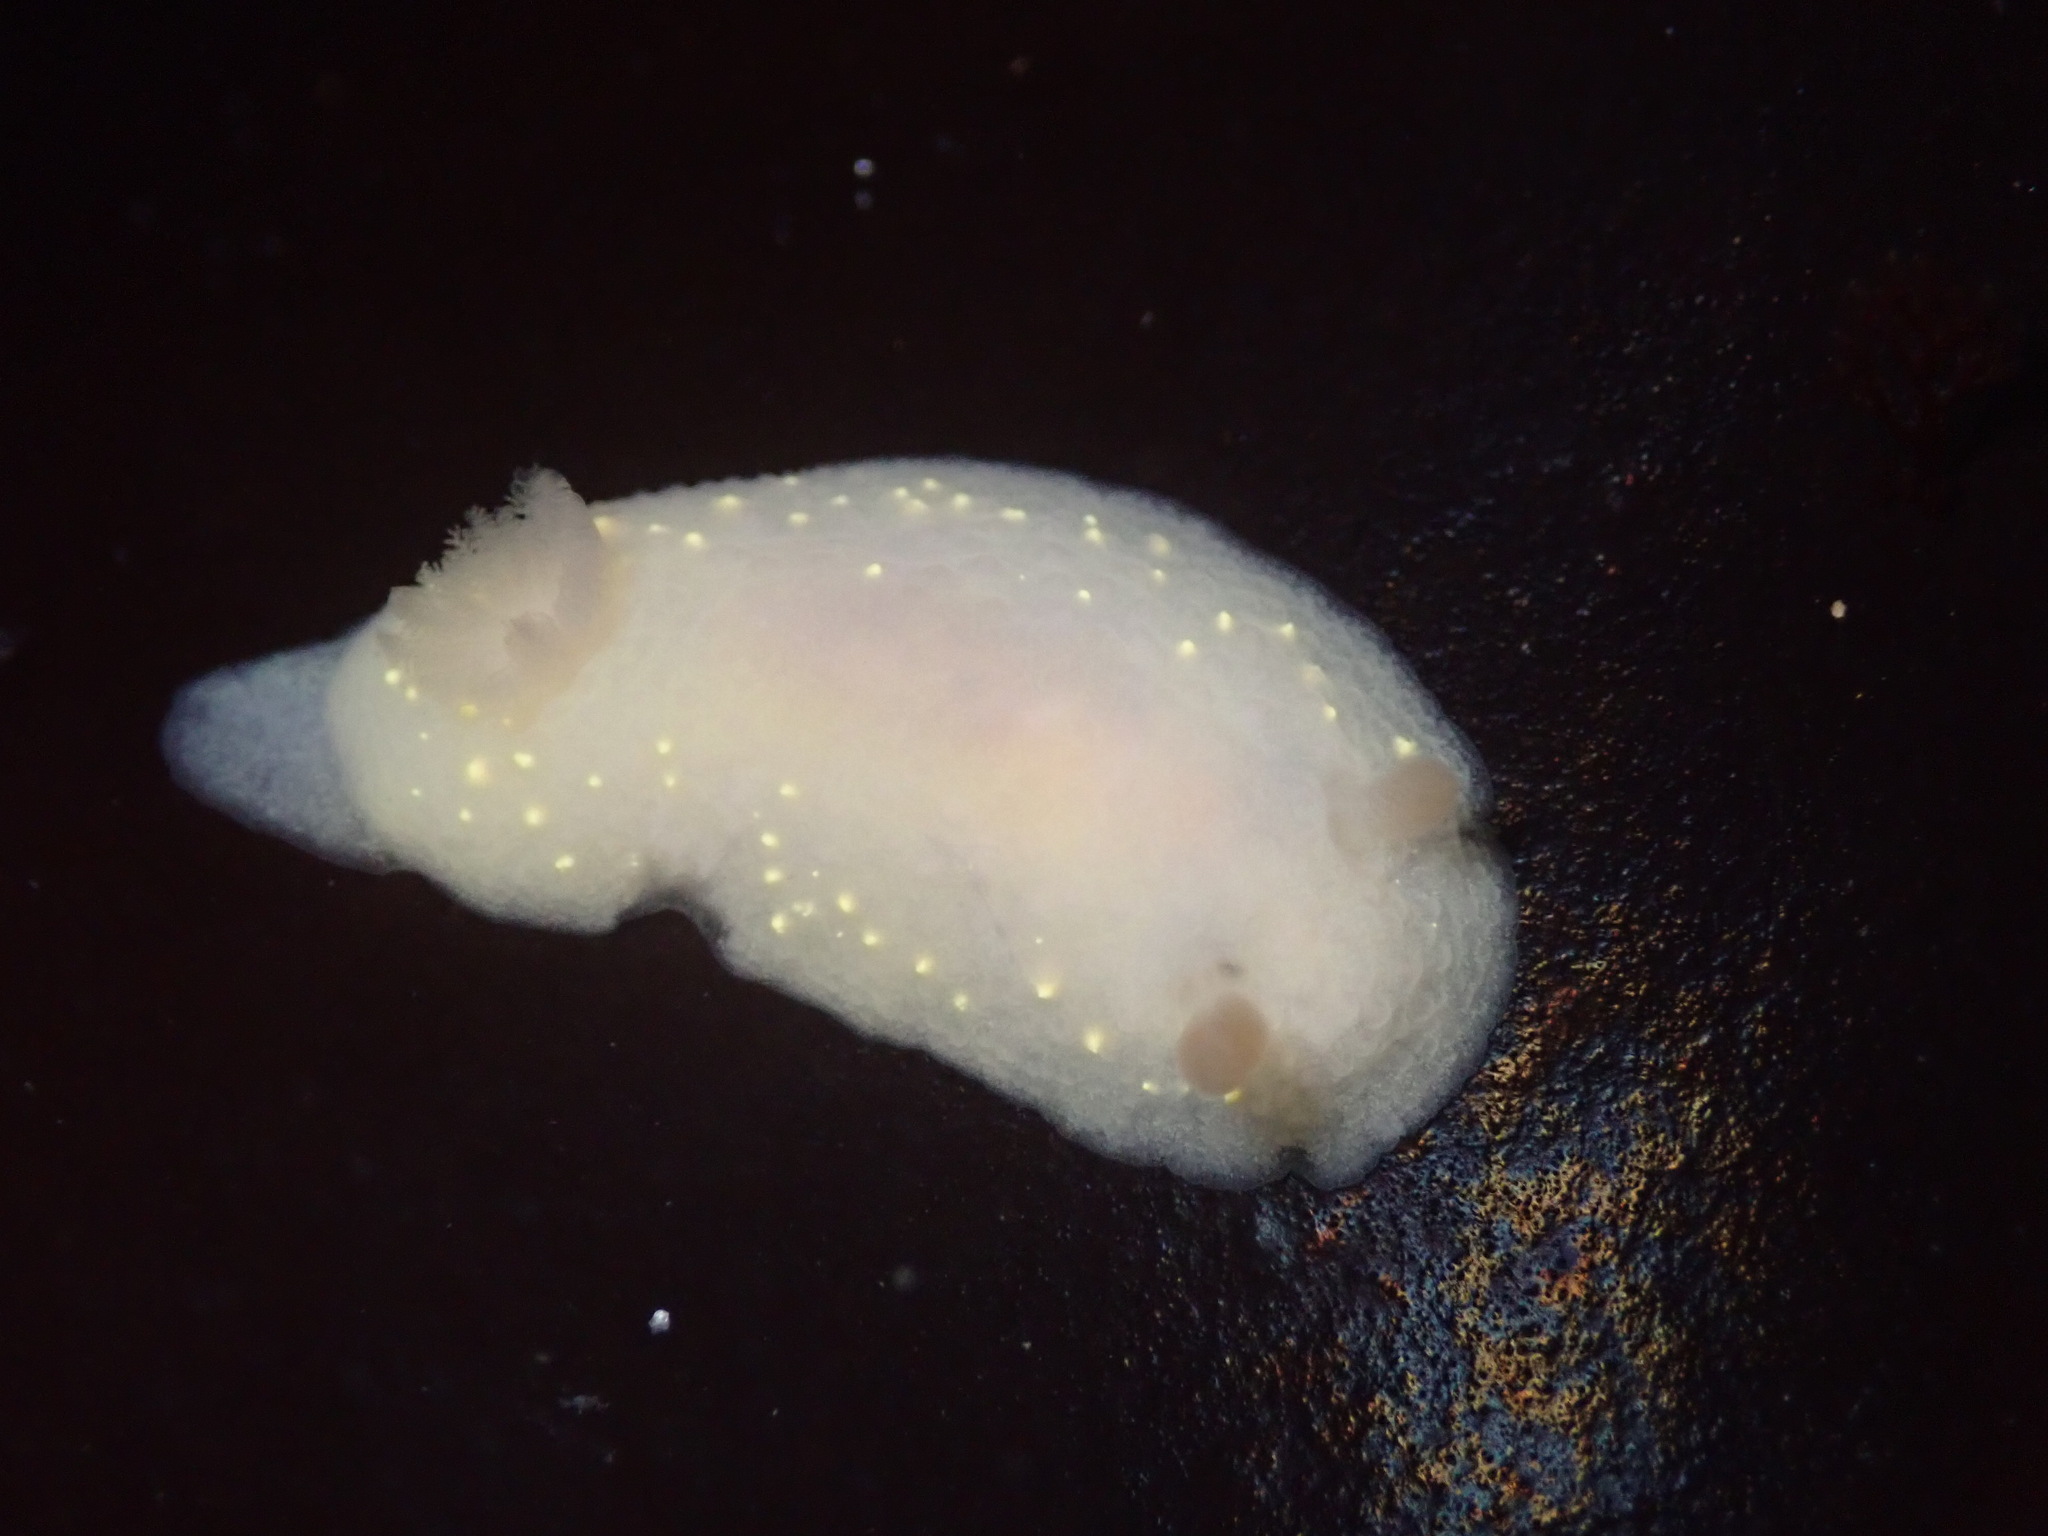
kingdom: Animalia
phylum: Mollusca
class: Gastropoda
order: Nudibranchia
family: Cadlinidae
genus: Cadlina
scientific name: Cadlina modesta
